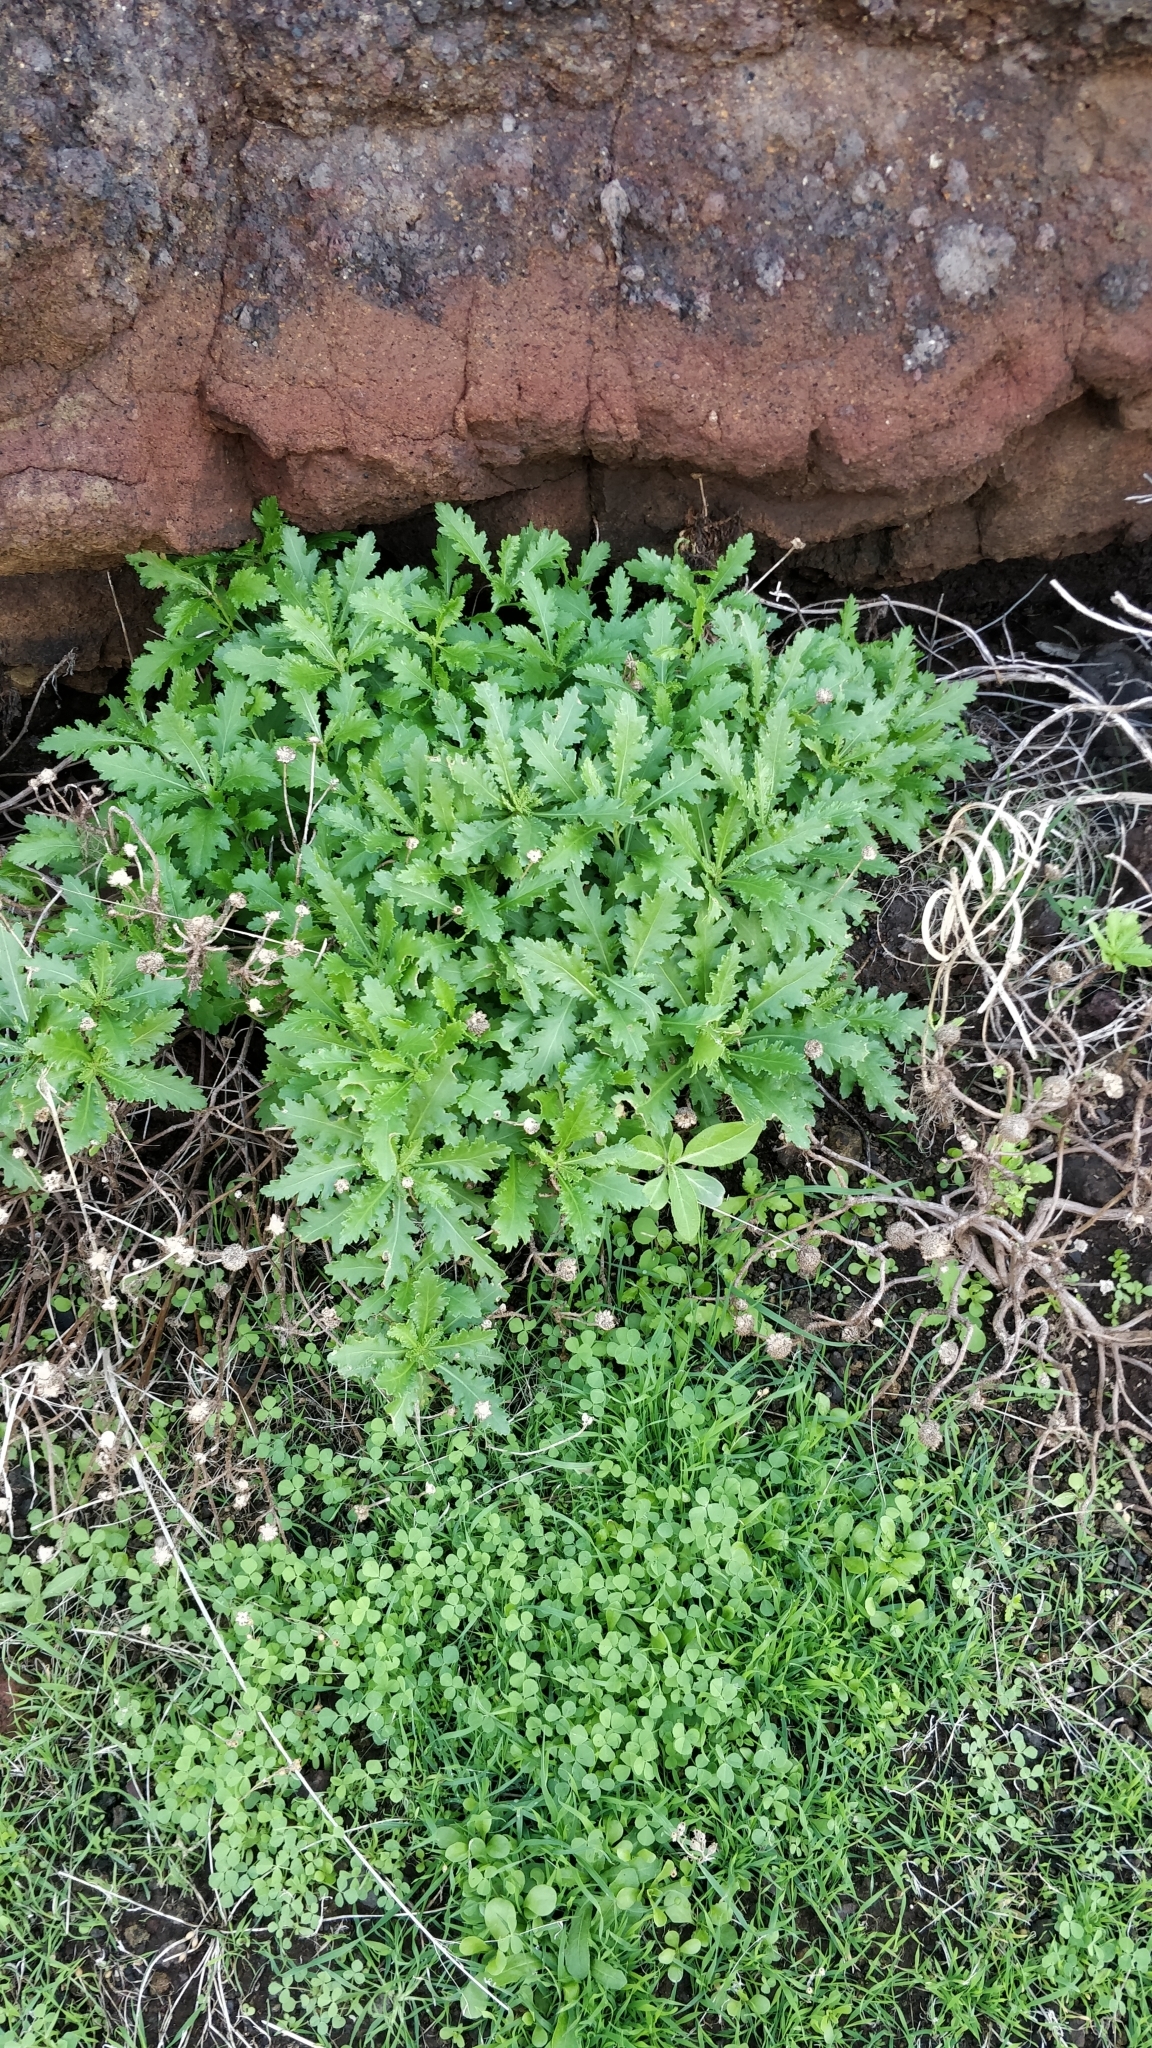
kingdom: Plantae
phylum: Tracheophyta
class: Magnoliopsida
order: Asterales
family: Asteraceae
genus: Argyranthemum
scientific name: Argyranthemum pinnatifidum
